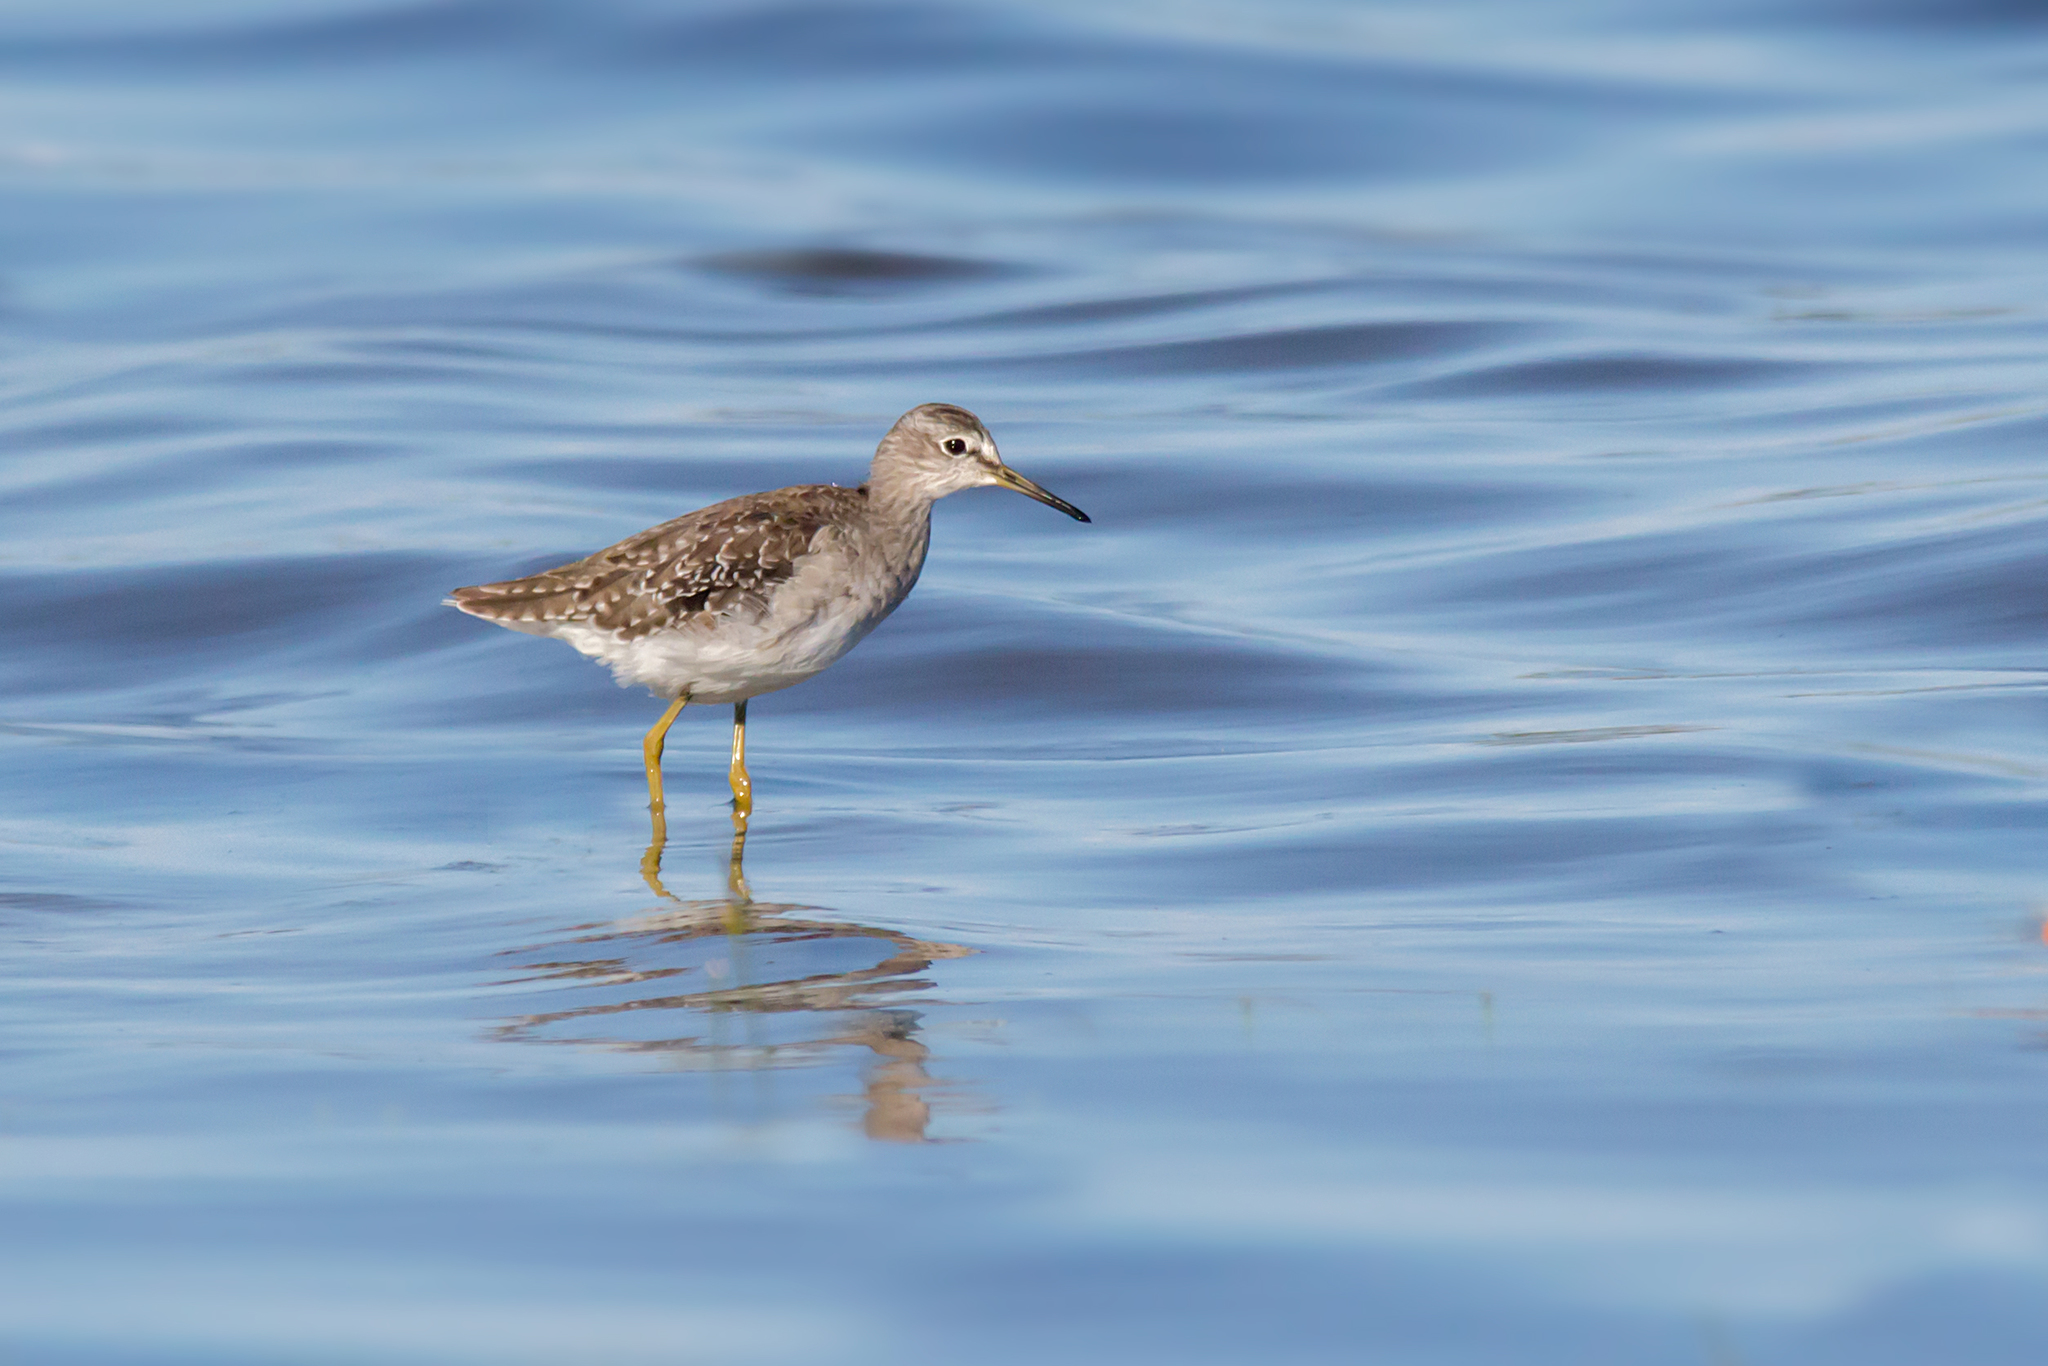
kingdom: Animalia
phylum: Chordata
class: Aves
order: Charadriiformes
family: Scolopacidae
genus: Tringa
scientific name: Tringa glareola
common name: Wood sandpiper
